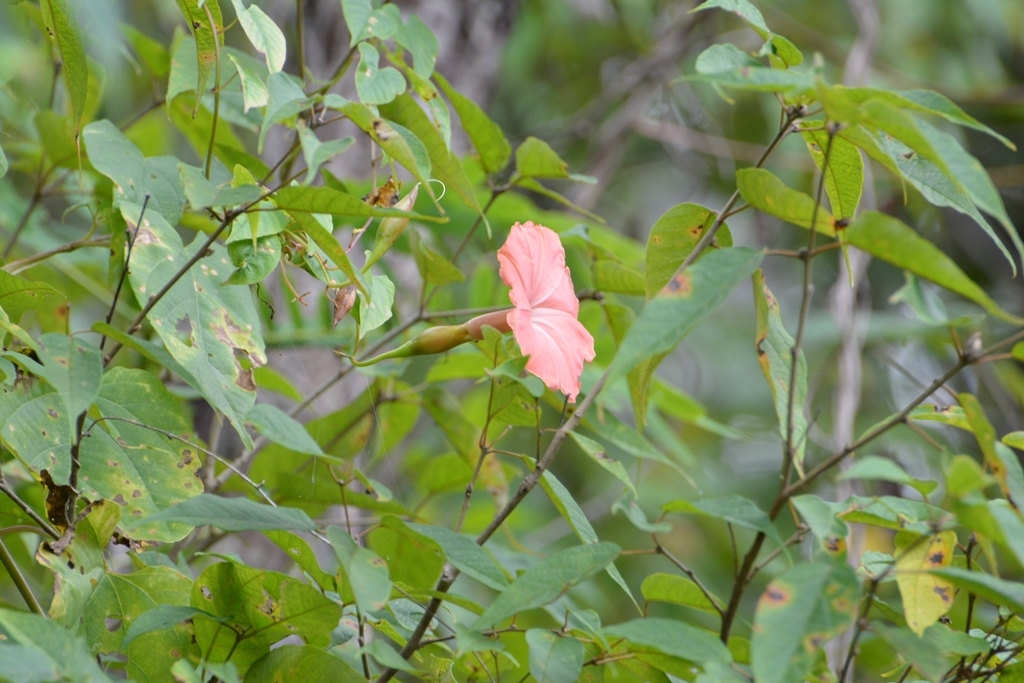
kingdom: Plantae
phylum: Tracheophyta
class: Magnoliopsida
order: Solanales
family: Convolvulaceae
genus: Operculina
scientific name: Operculina pteripes
